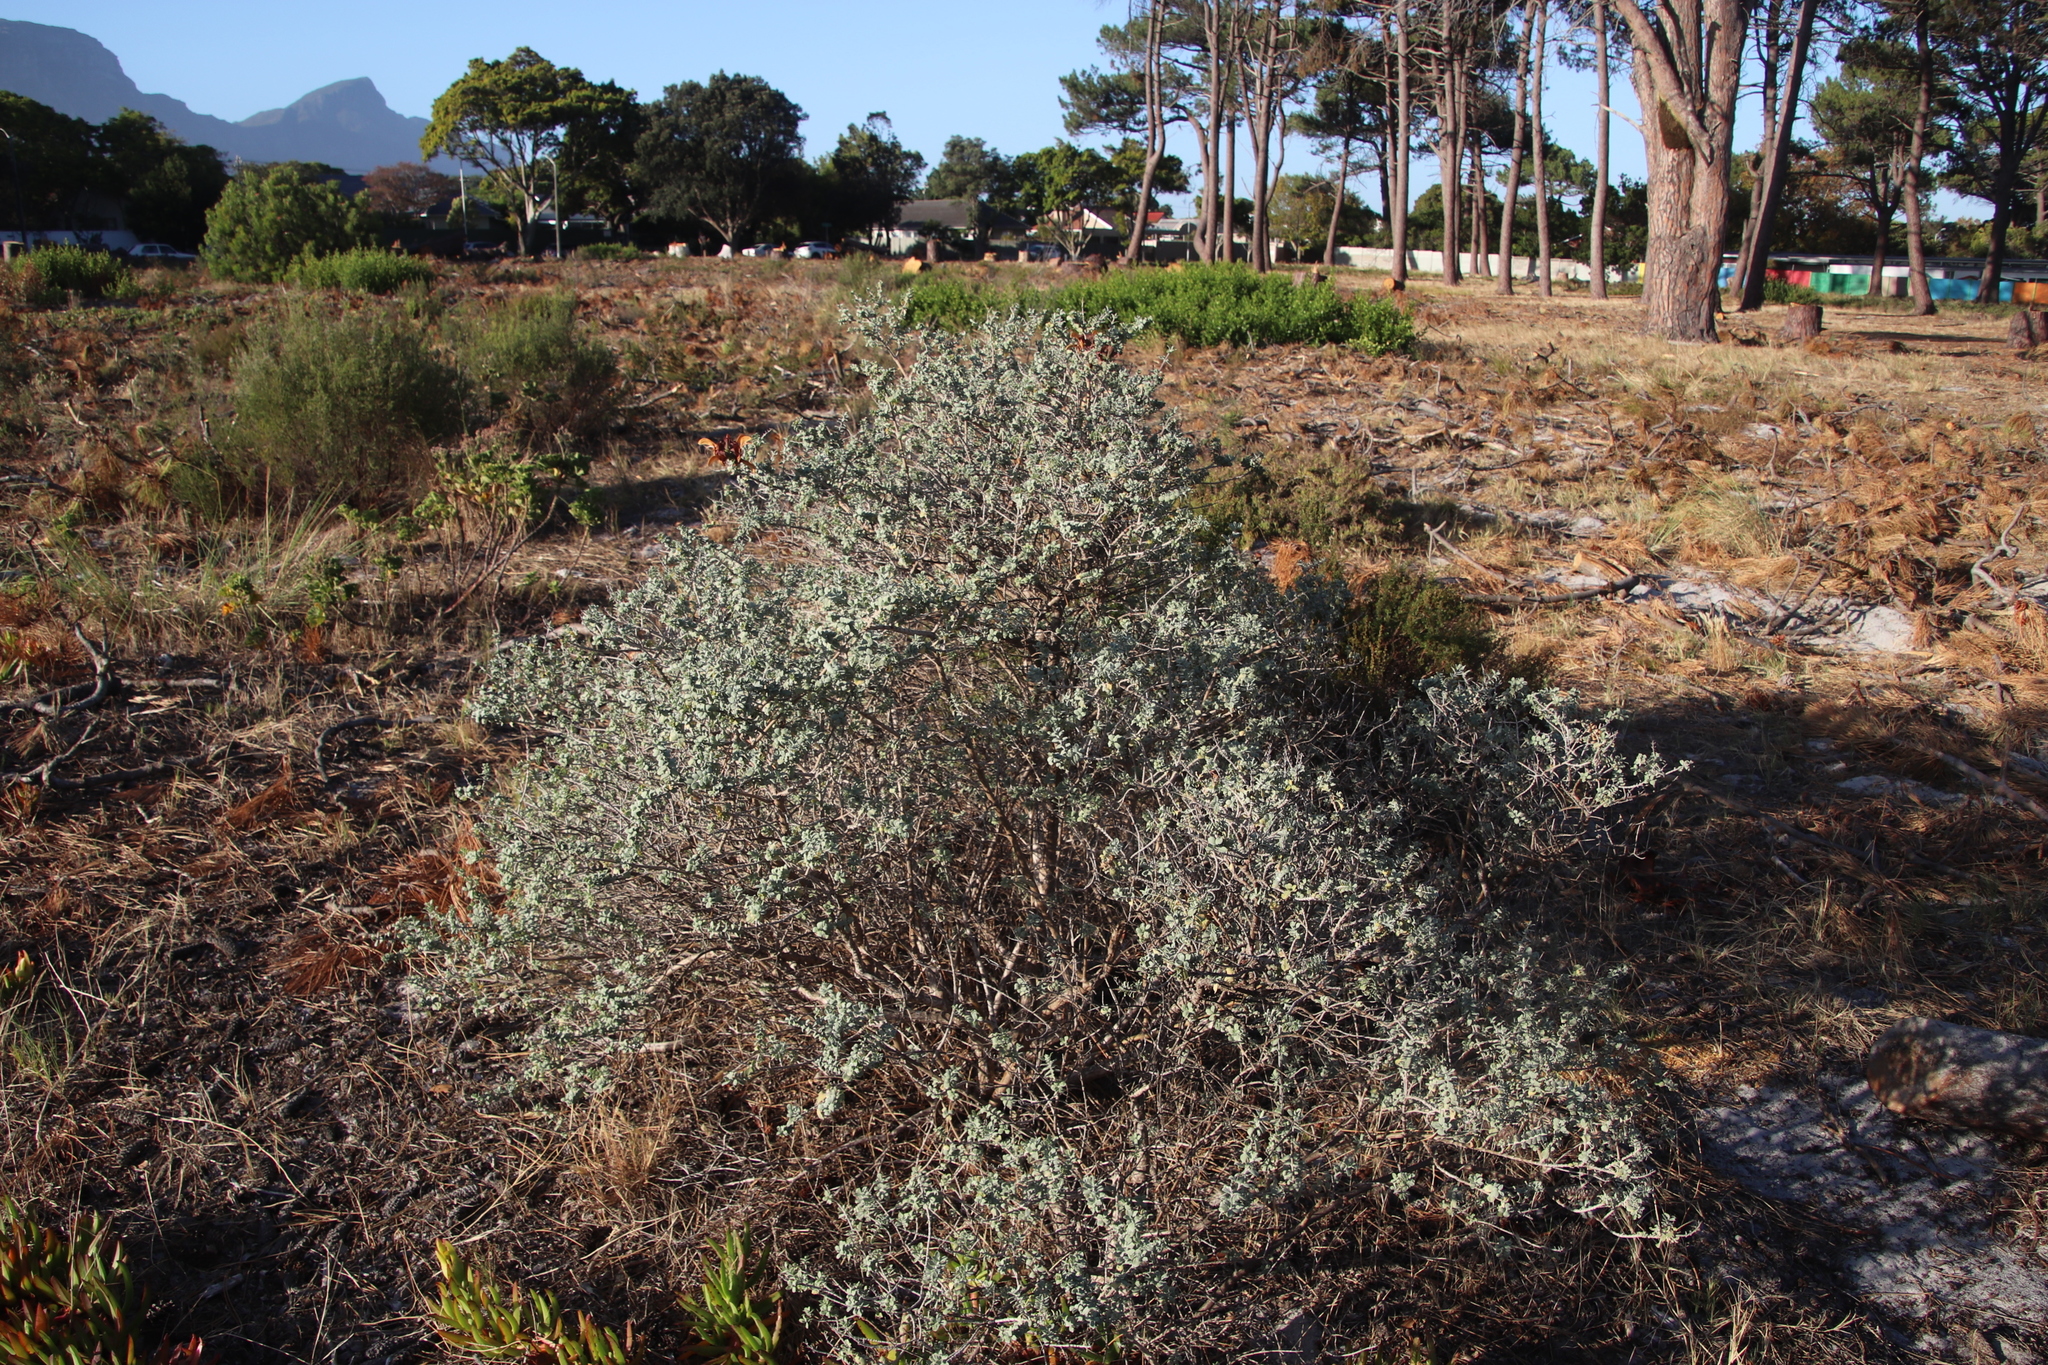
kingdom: Plantae
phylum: Tracheophyta
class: Magnoliopsida
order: Lamiales
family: Lamiaceae
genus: Salvia
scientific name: Salvia aurea
